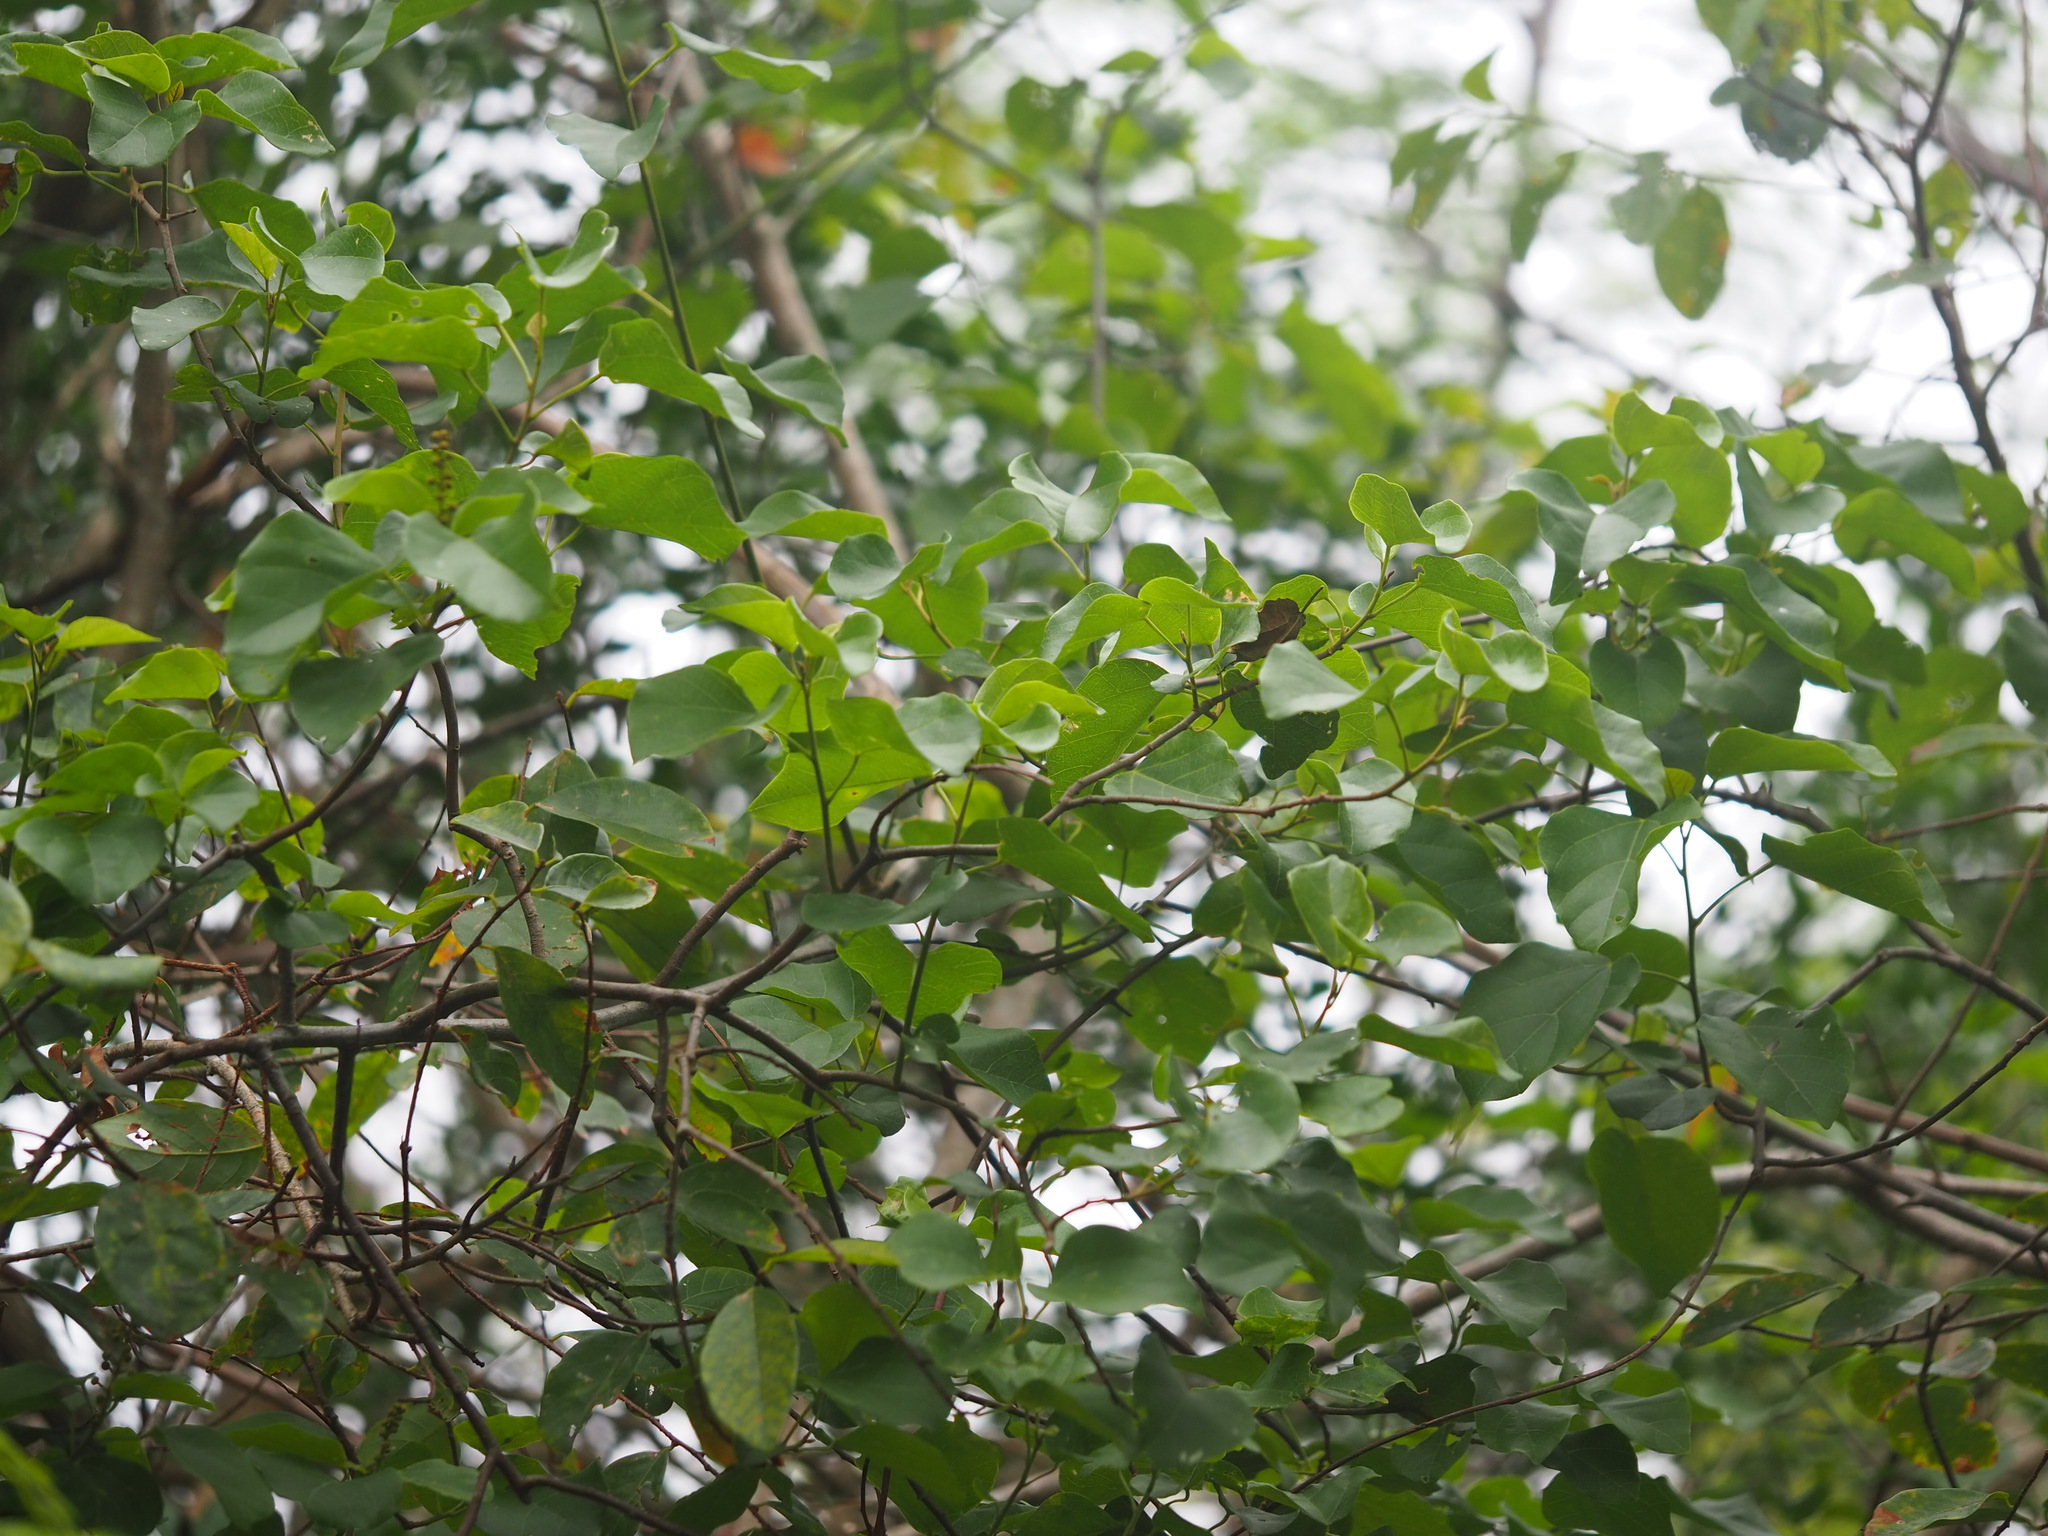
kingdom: Plantae
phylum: Tracheophyta
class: Magnoliopsida
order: Malpighiales
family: Euphorbiaceae
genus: Mallotus
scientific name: Mallotus repandus
